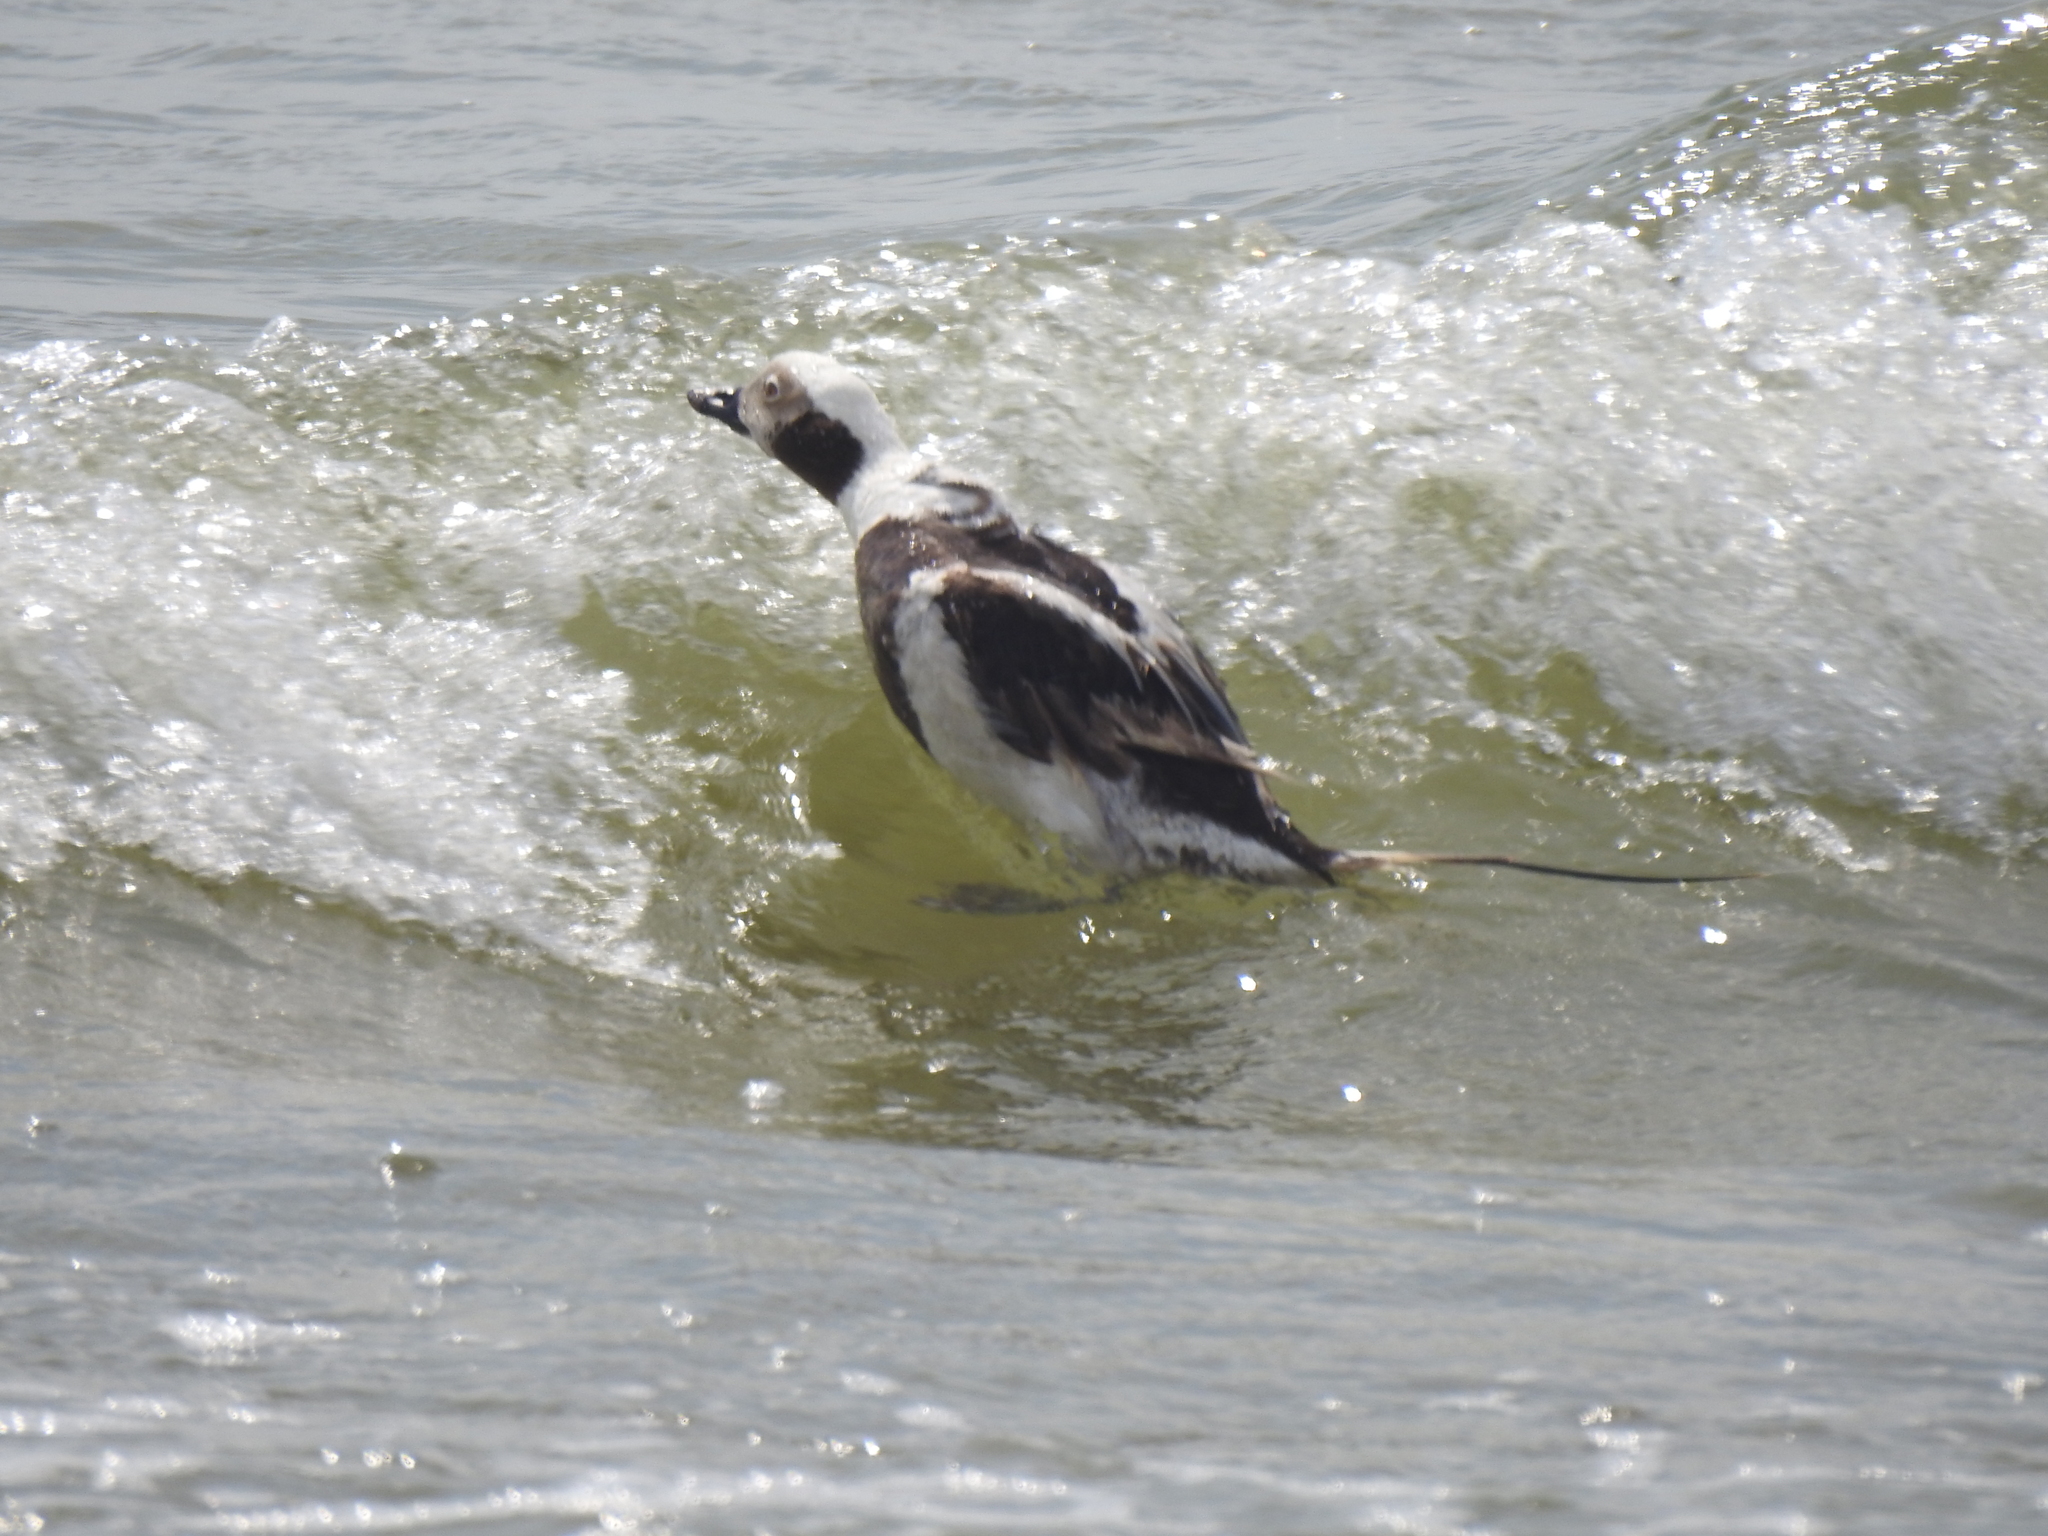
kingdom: Animalia
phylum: Chordata
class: Aves
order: Anseriformes
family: Anatidae
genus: Clangula
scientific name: Clangula hyemalis
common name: Long-tailed duck
